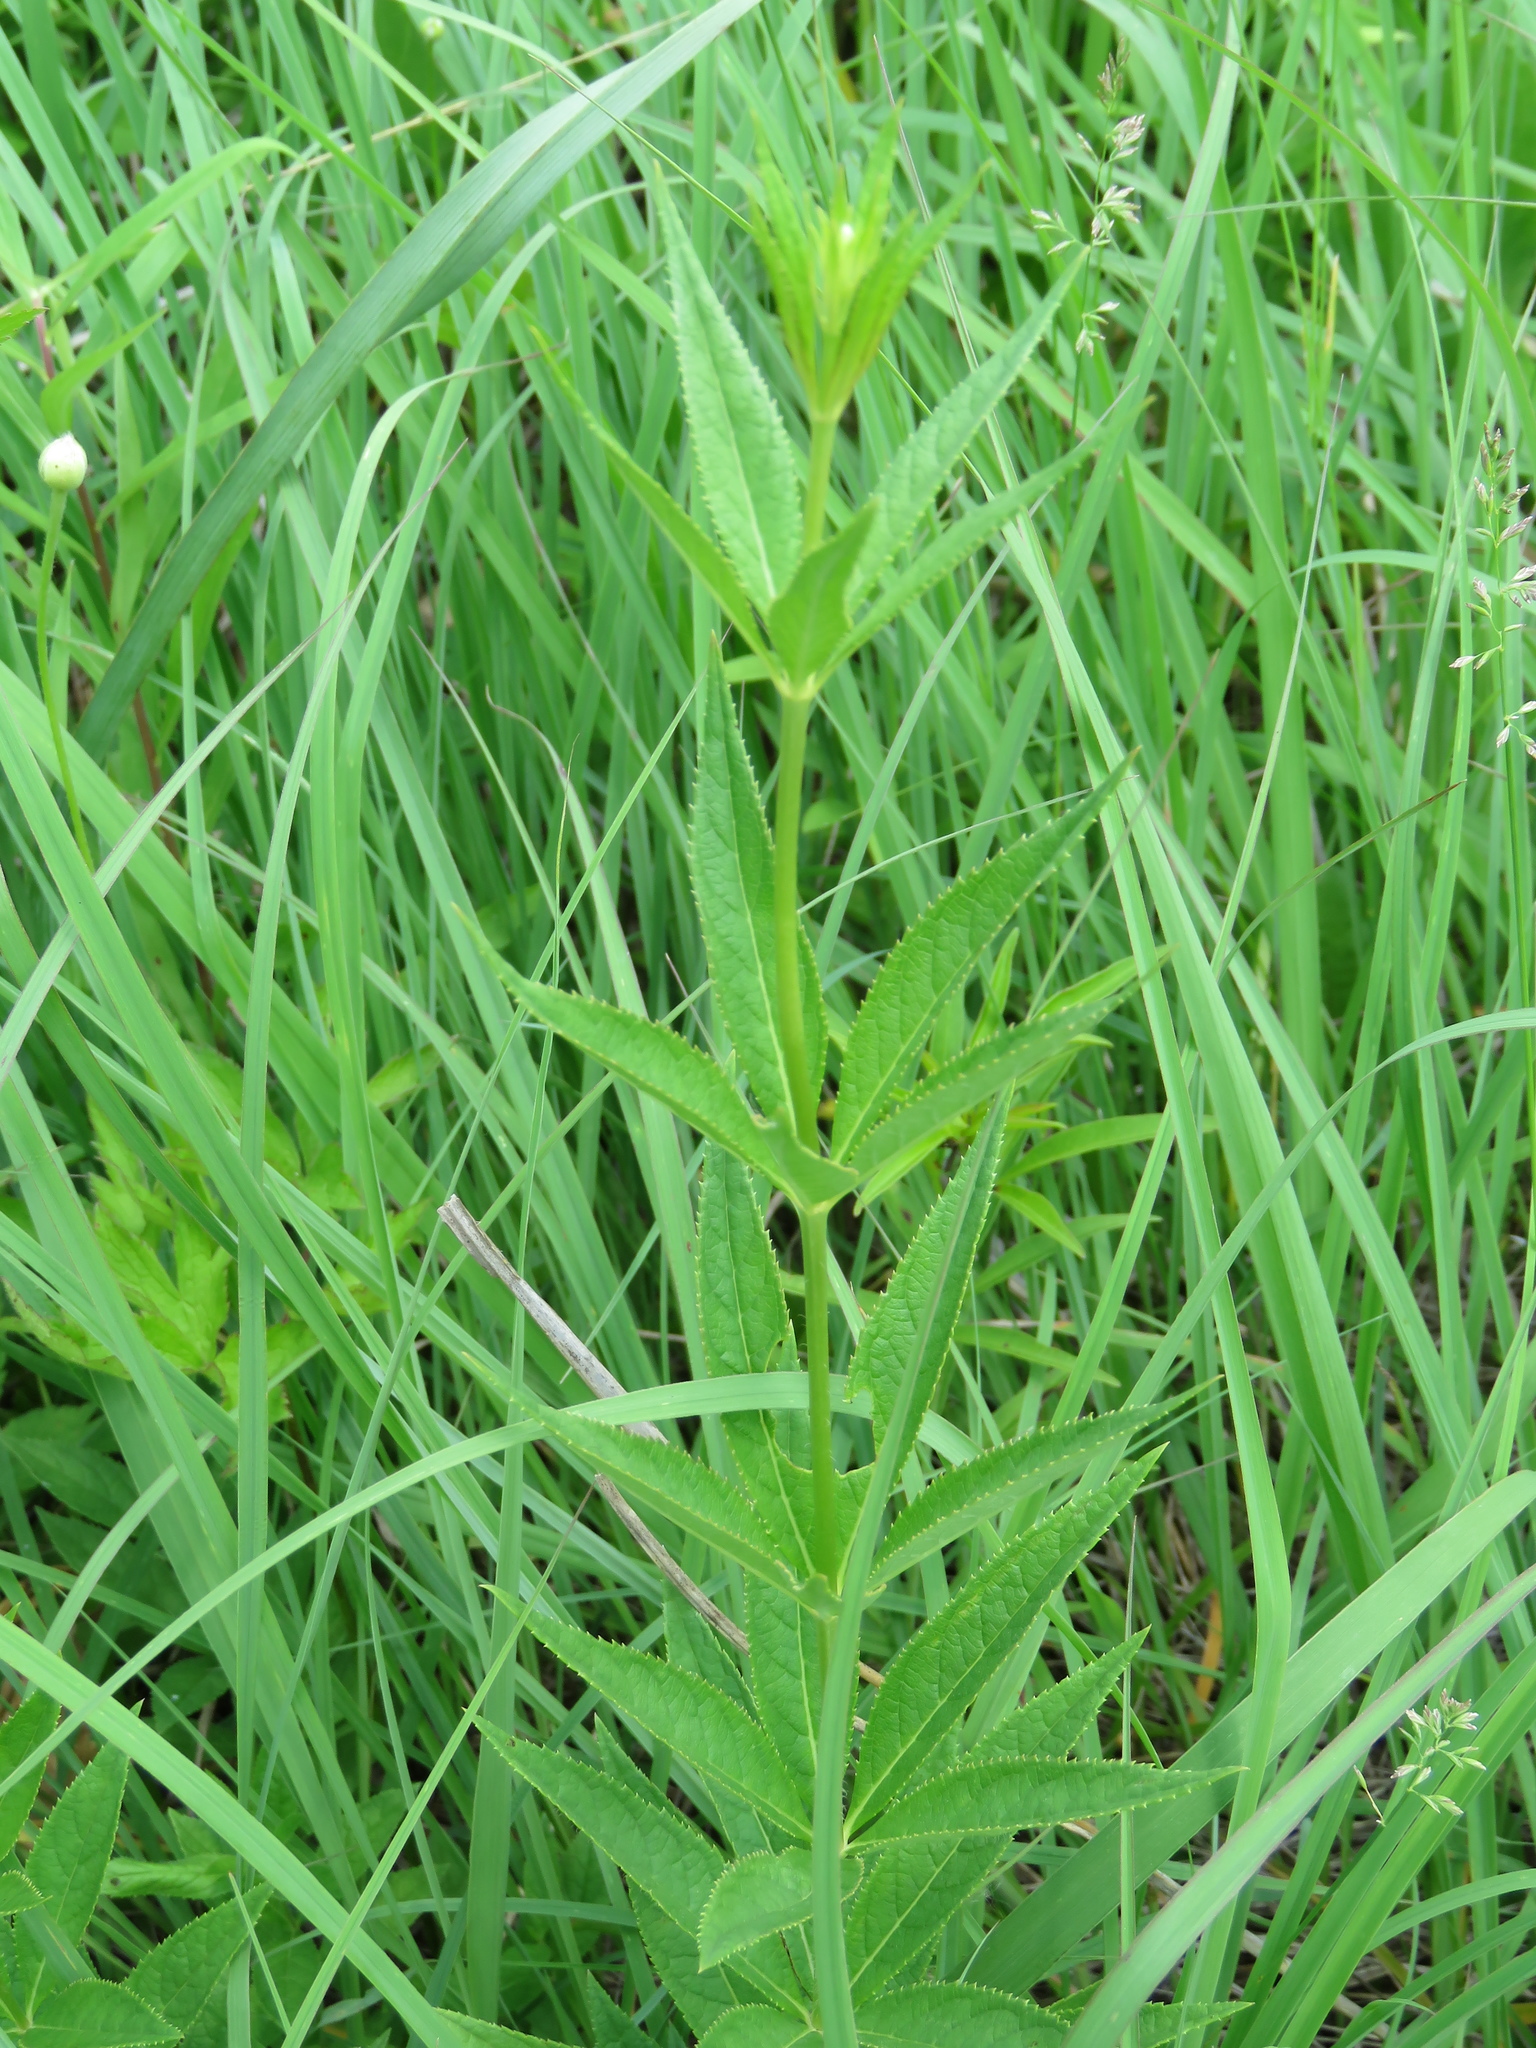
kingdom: Plantae
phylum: Tracheophyta
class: Magnoliopsida
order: Lamiales
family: Plantaginaceae
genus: Veronicastrum
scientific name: Veronicastrum virginicum
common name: Blackroot
